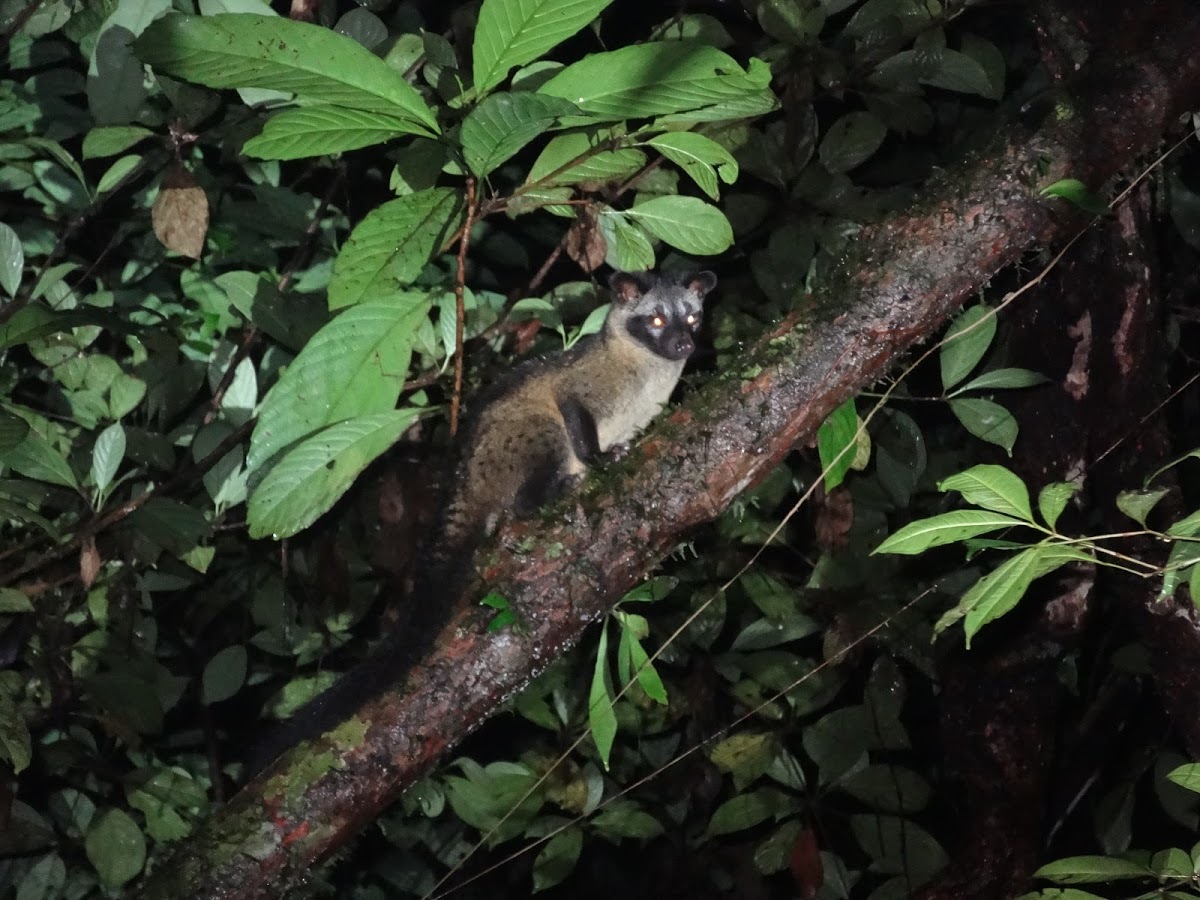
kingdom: Animalia
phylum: Chordata
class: Mammalia
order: Carnivora
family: Viverridae
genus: Paradoxurus
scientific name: Paradoxurus hermaphroditus
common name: Common palm civet
